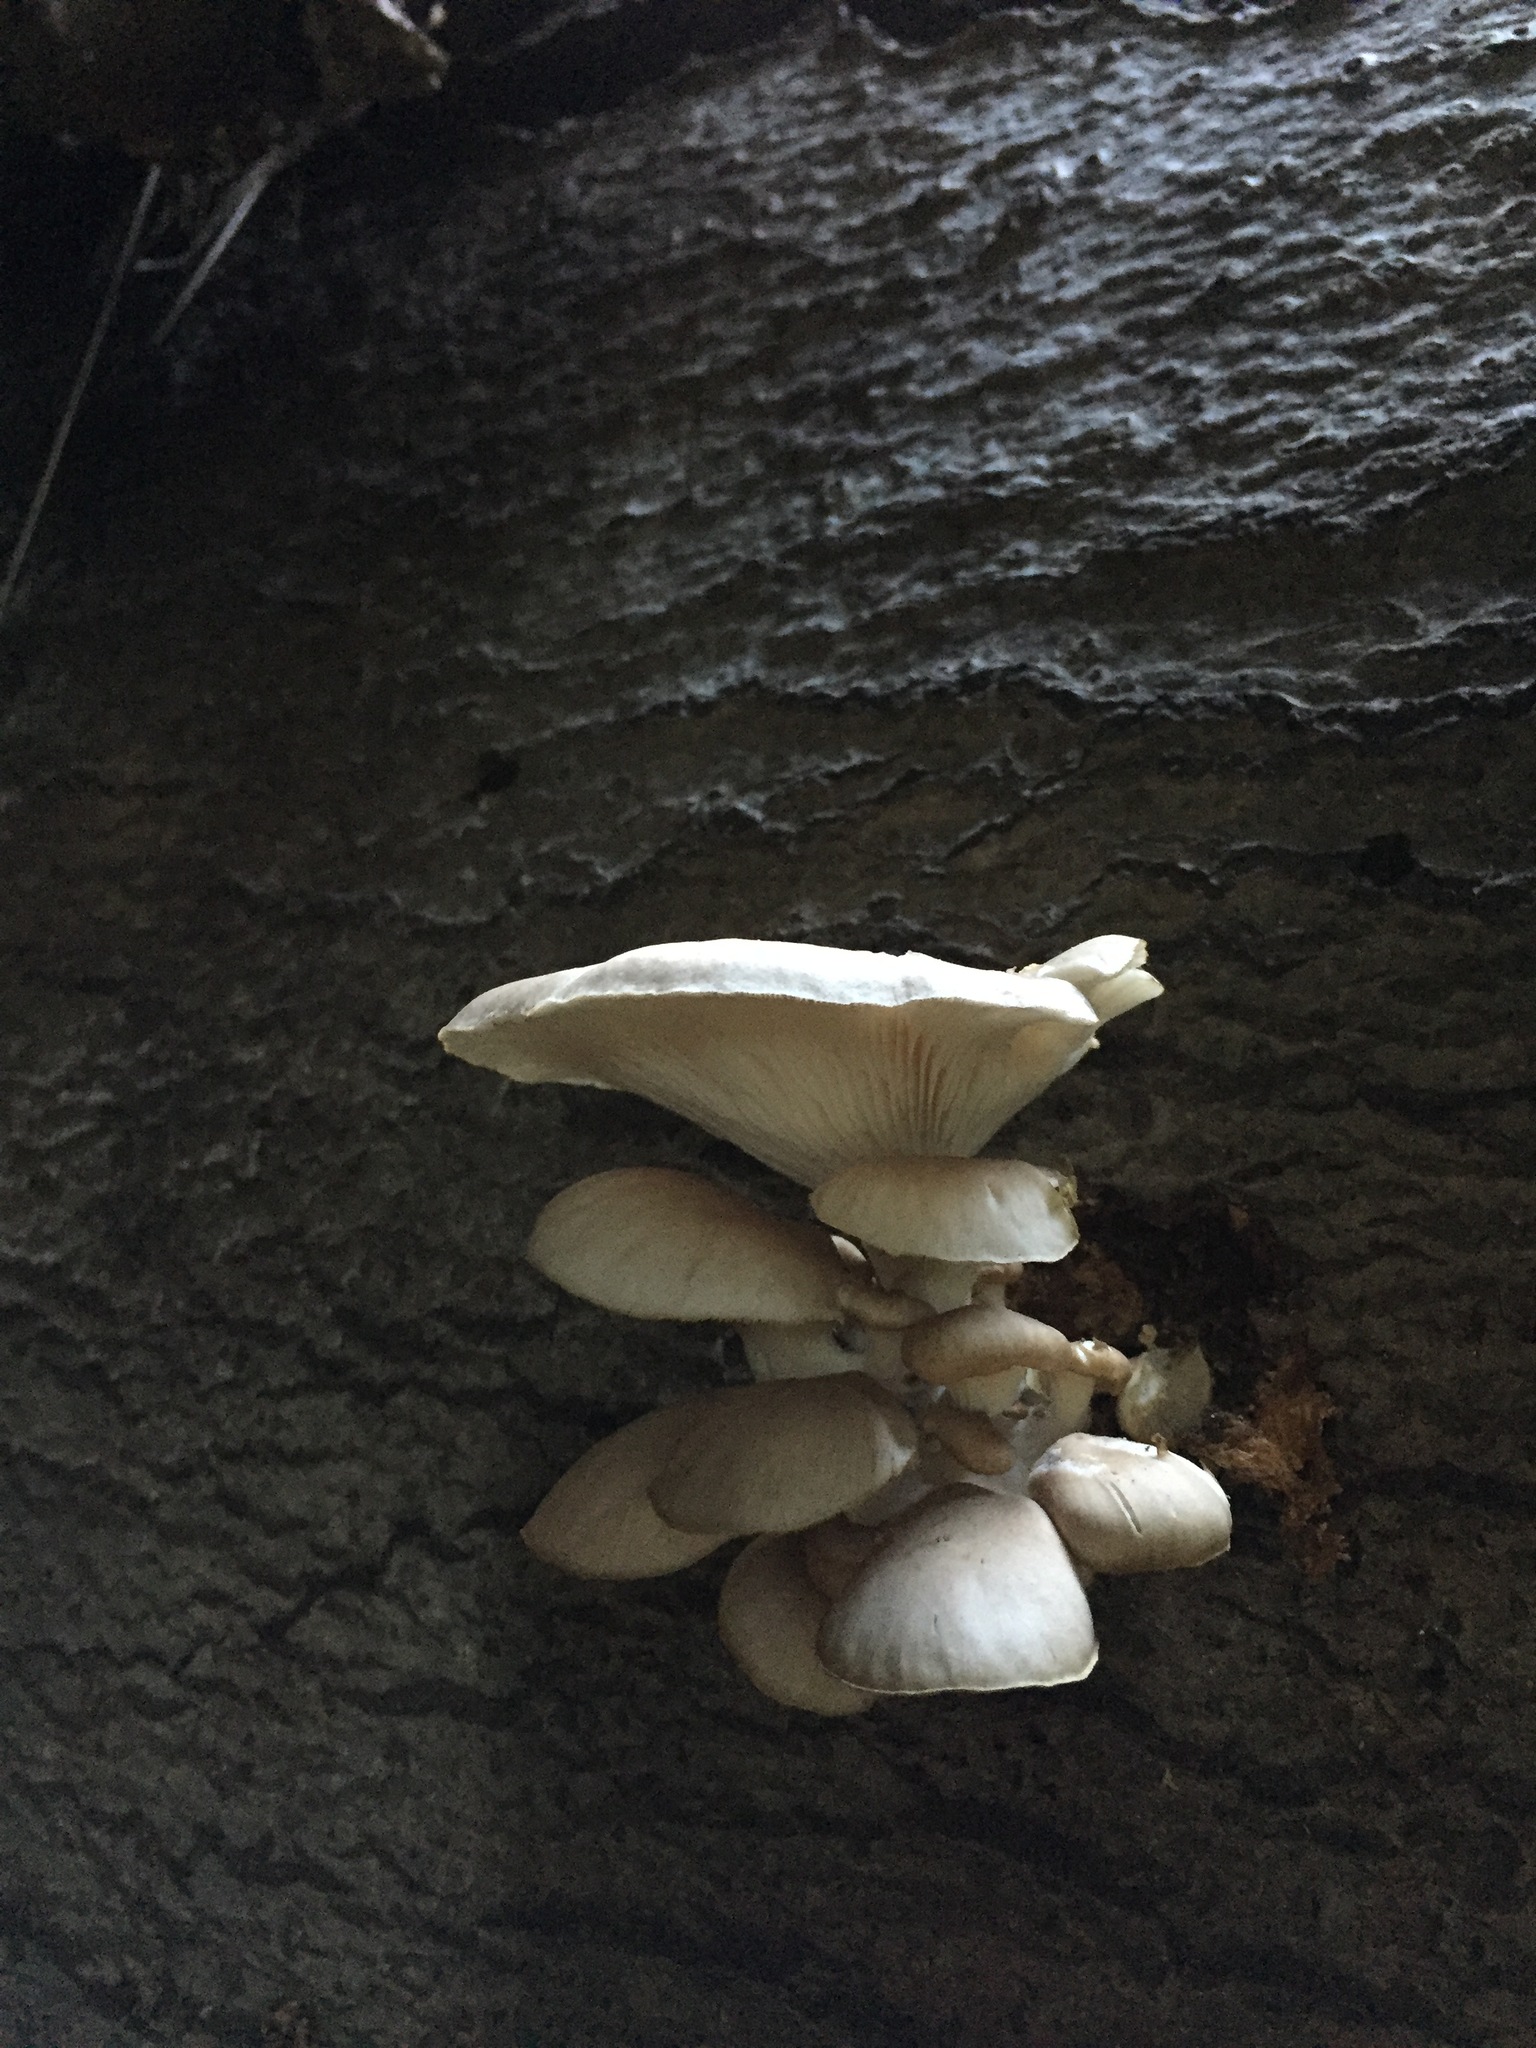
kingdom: Fungi
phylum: Basidiomycota
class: Agaricomycetes
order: Agaricales
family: Pleurotaceae
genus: Pleurotus
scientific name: Pleurotus ostreatus
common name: Oyster mushroom
